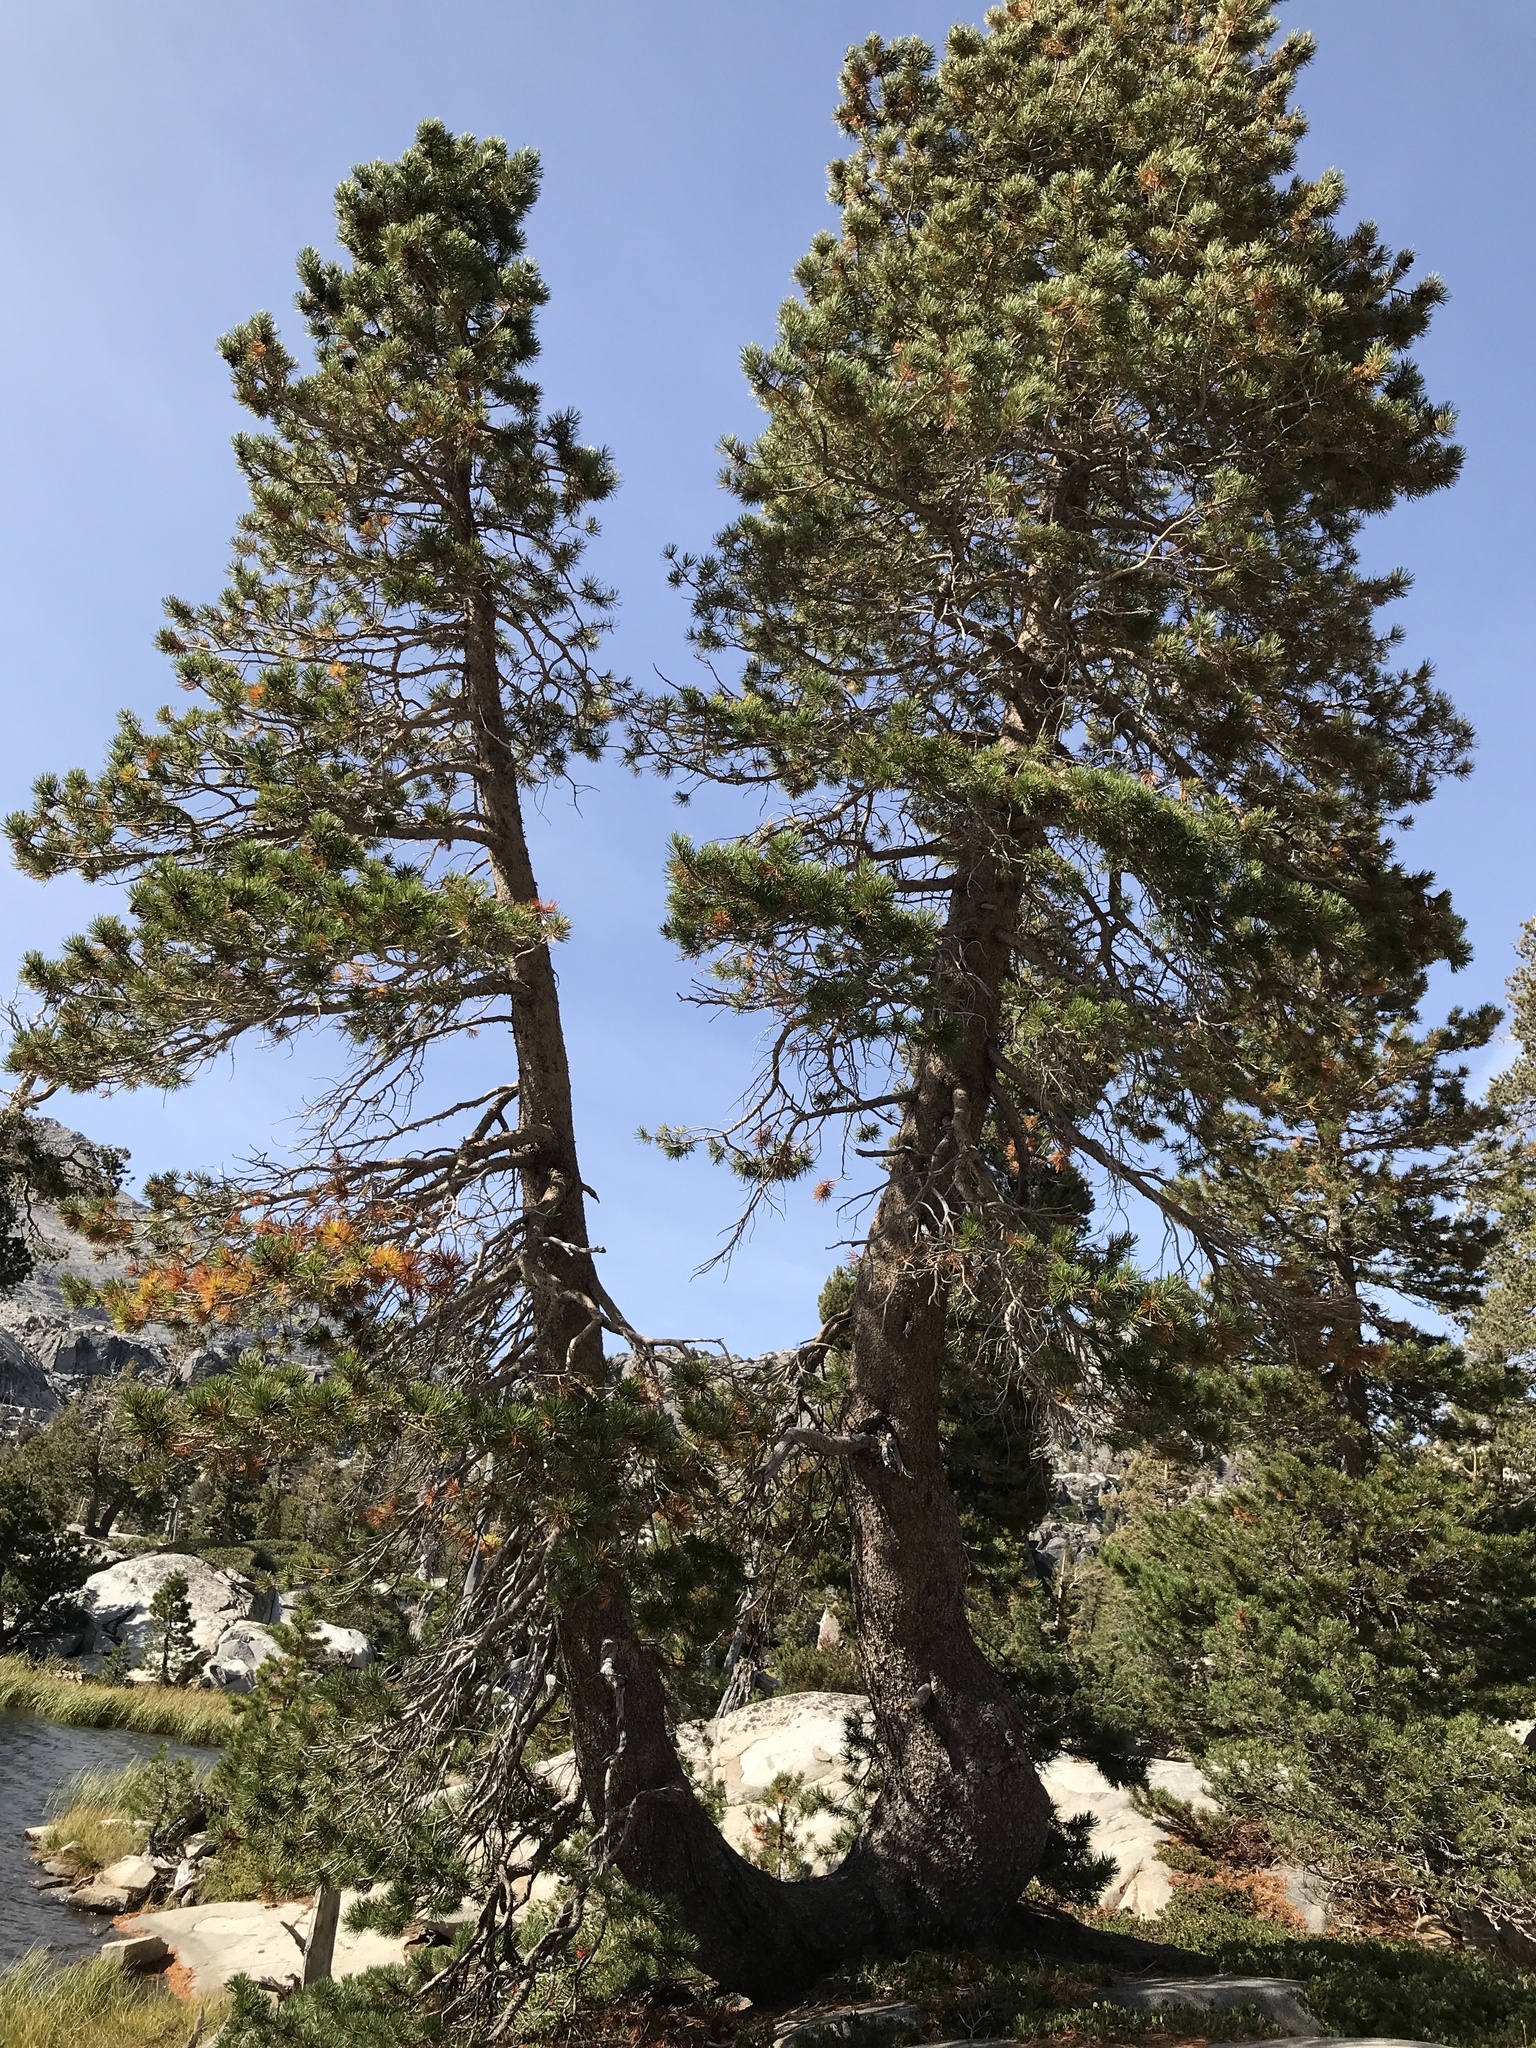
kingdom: Plantae
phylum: Tracheophyta
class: Pinopsida
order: Pinales
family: Pinaceae
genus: Pinus
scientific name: Pinus contorta
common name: Lodgepole pine
